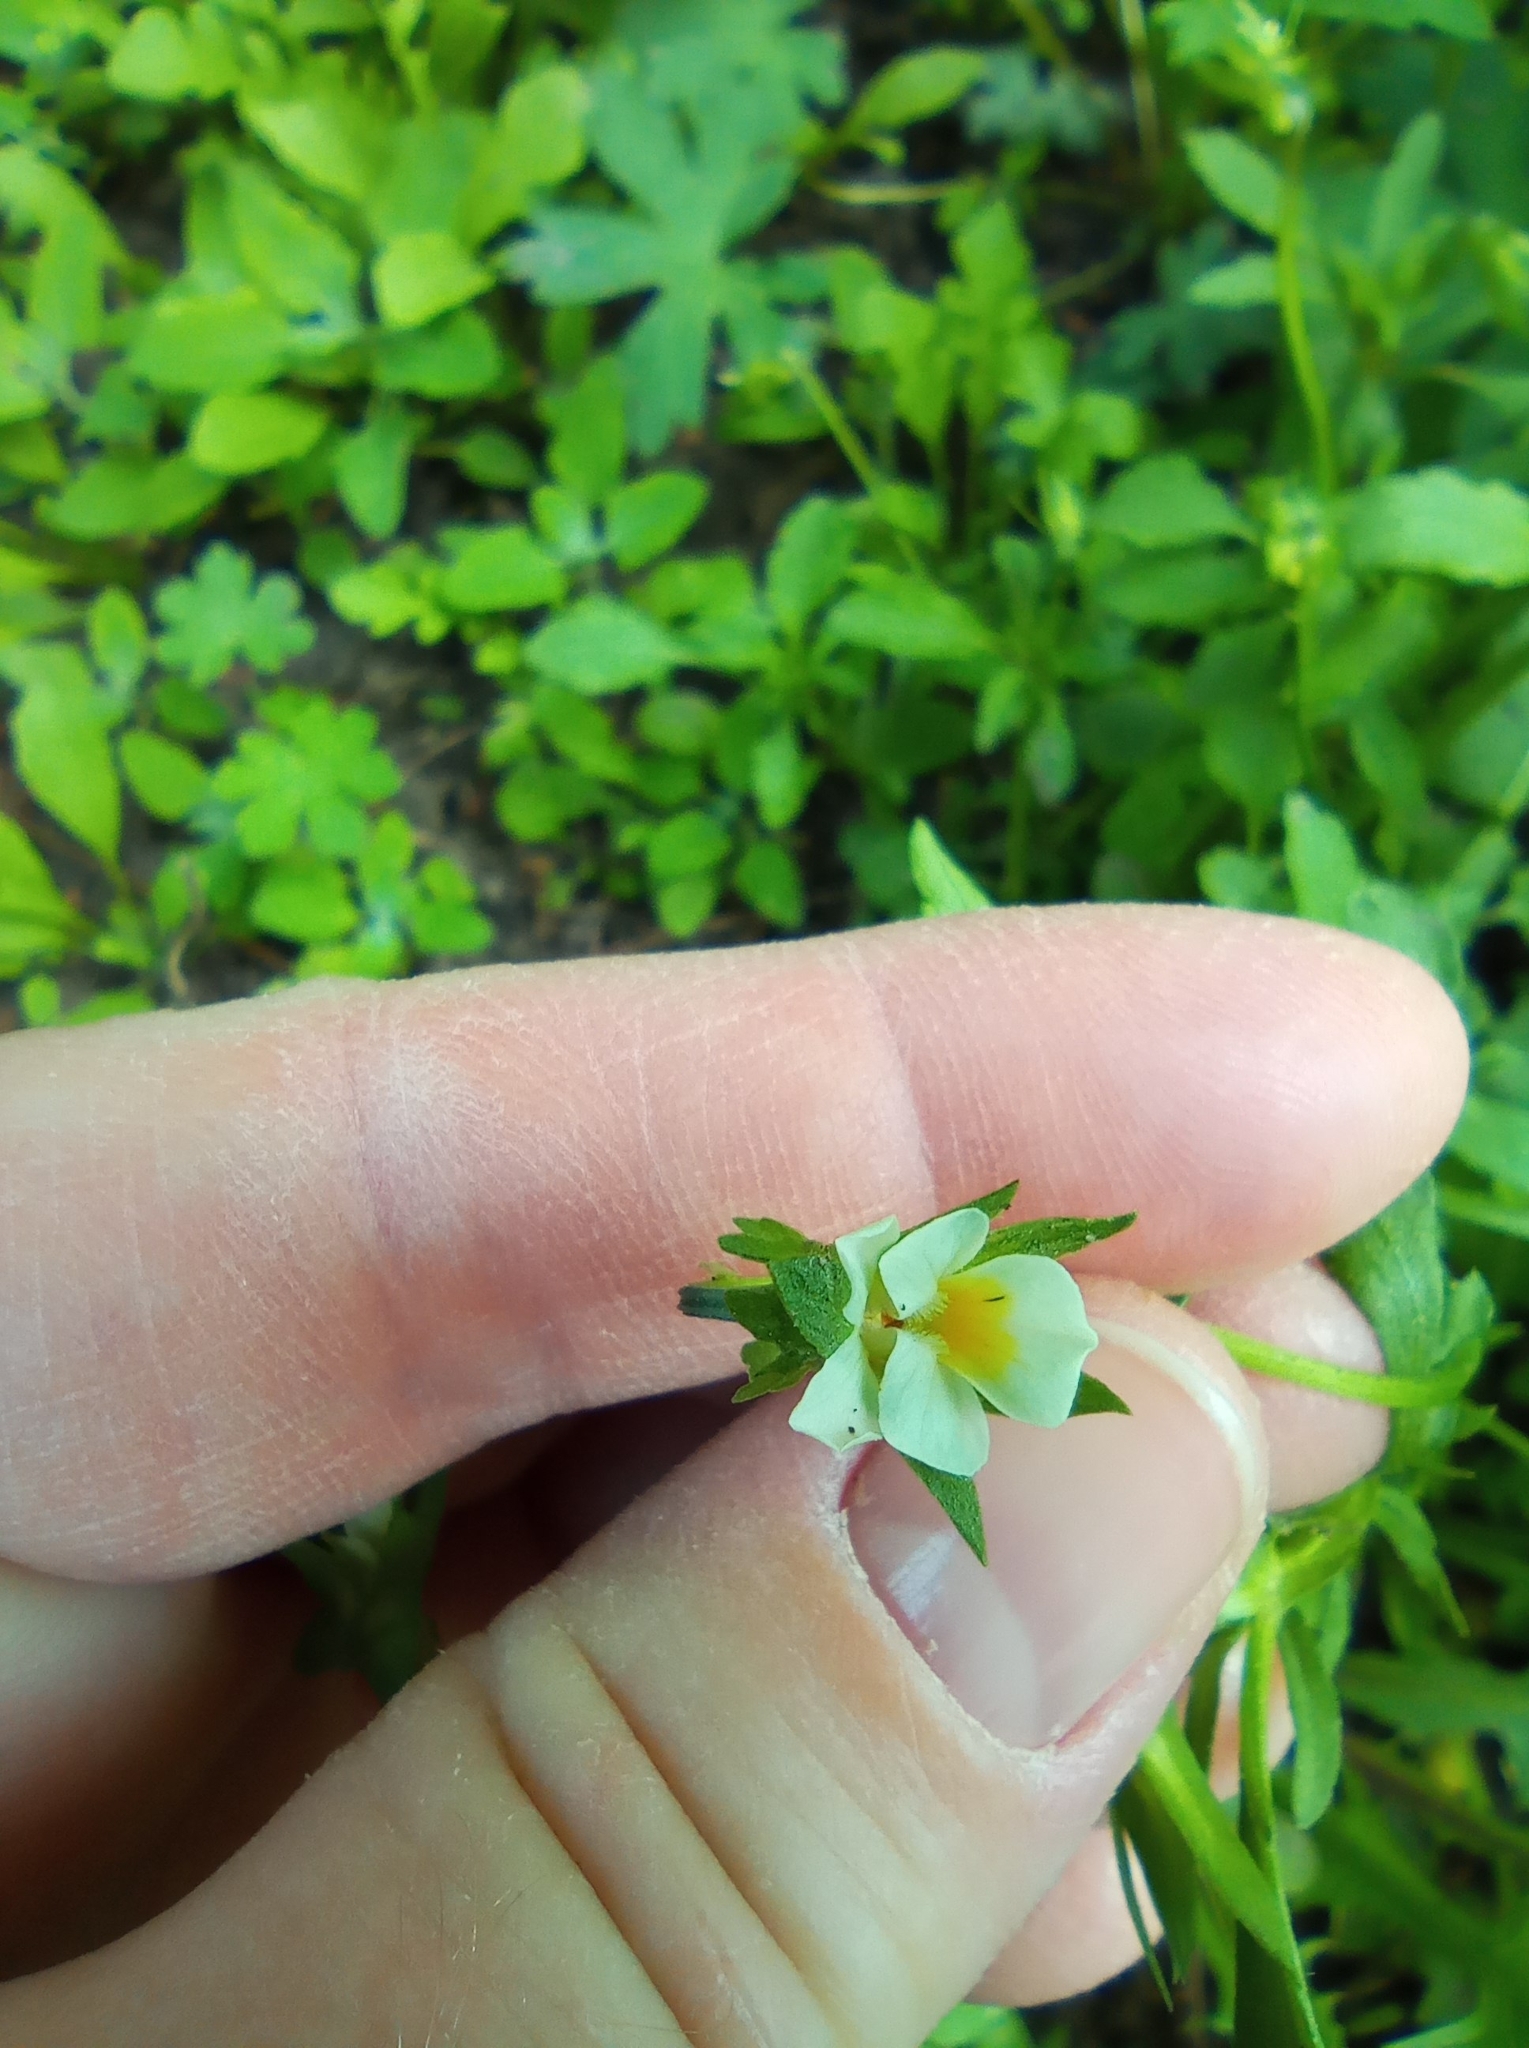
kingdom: Plantae
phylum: Tracheophyta
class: Magnoliopsida
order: Malpighiales
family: Violaceae
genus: Viola
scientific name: Viola arvensis
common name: Field pansy
